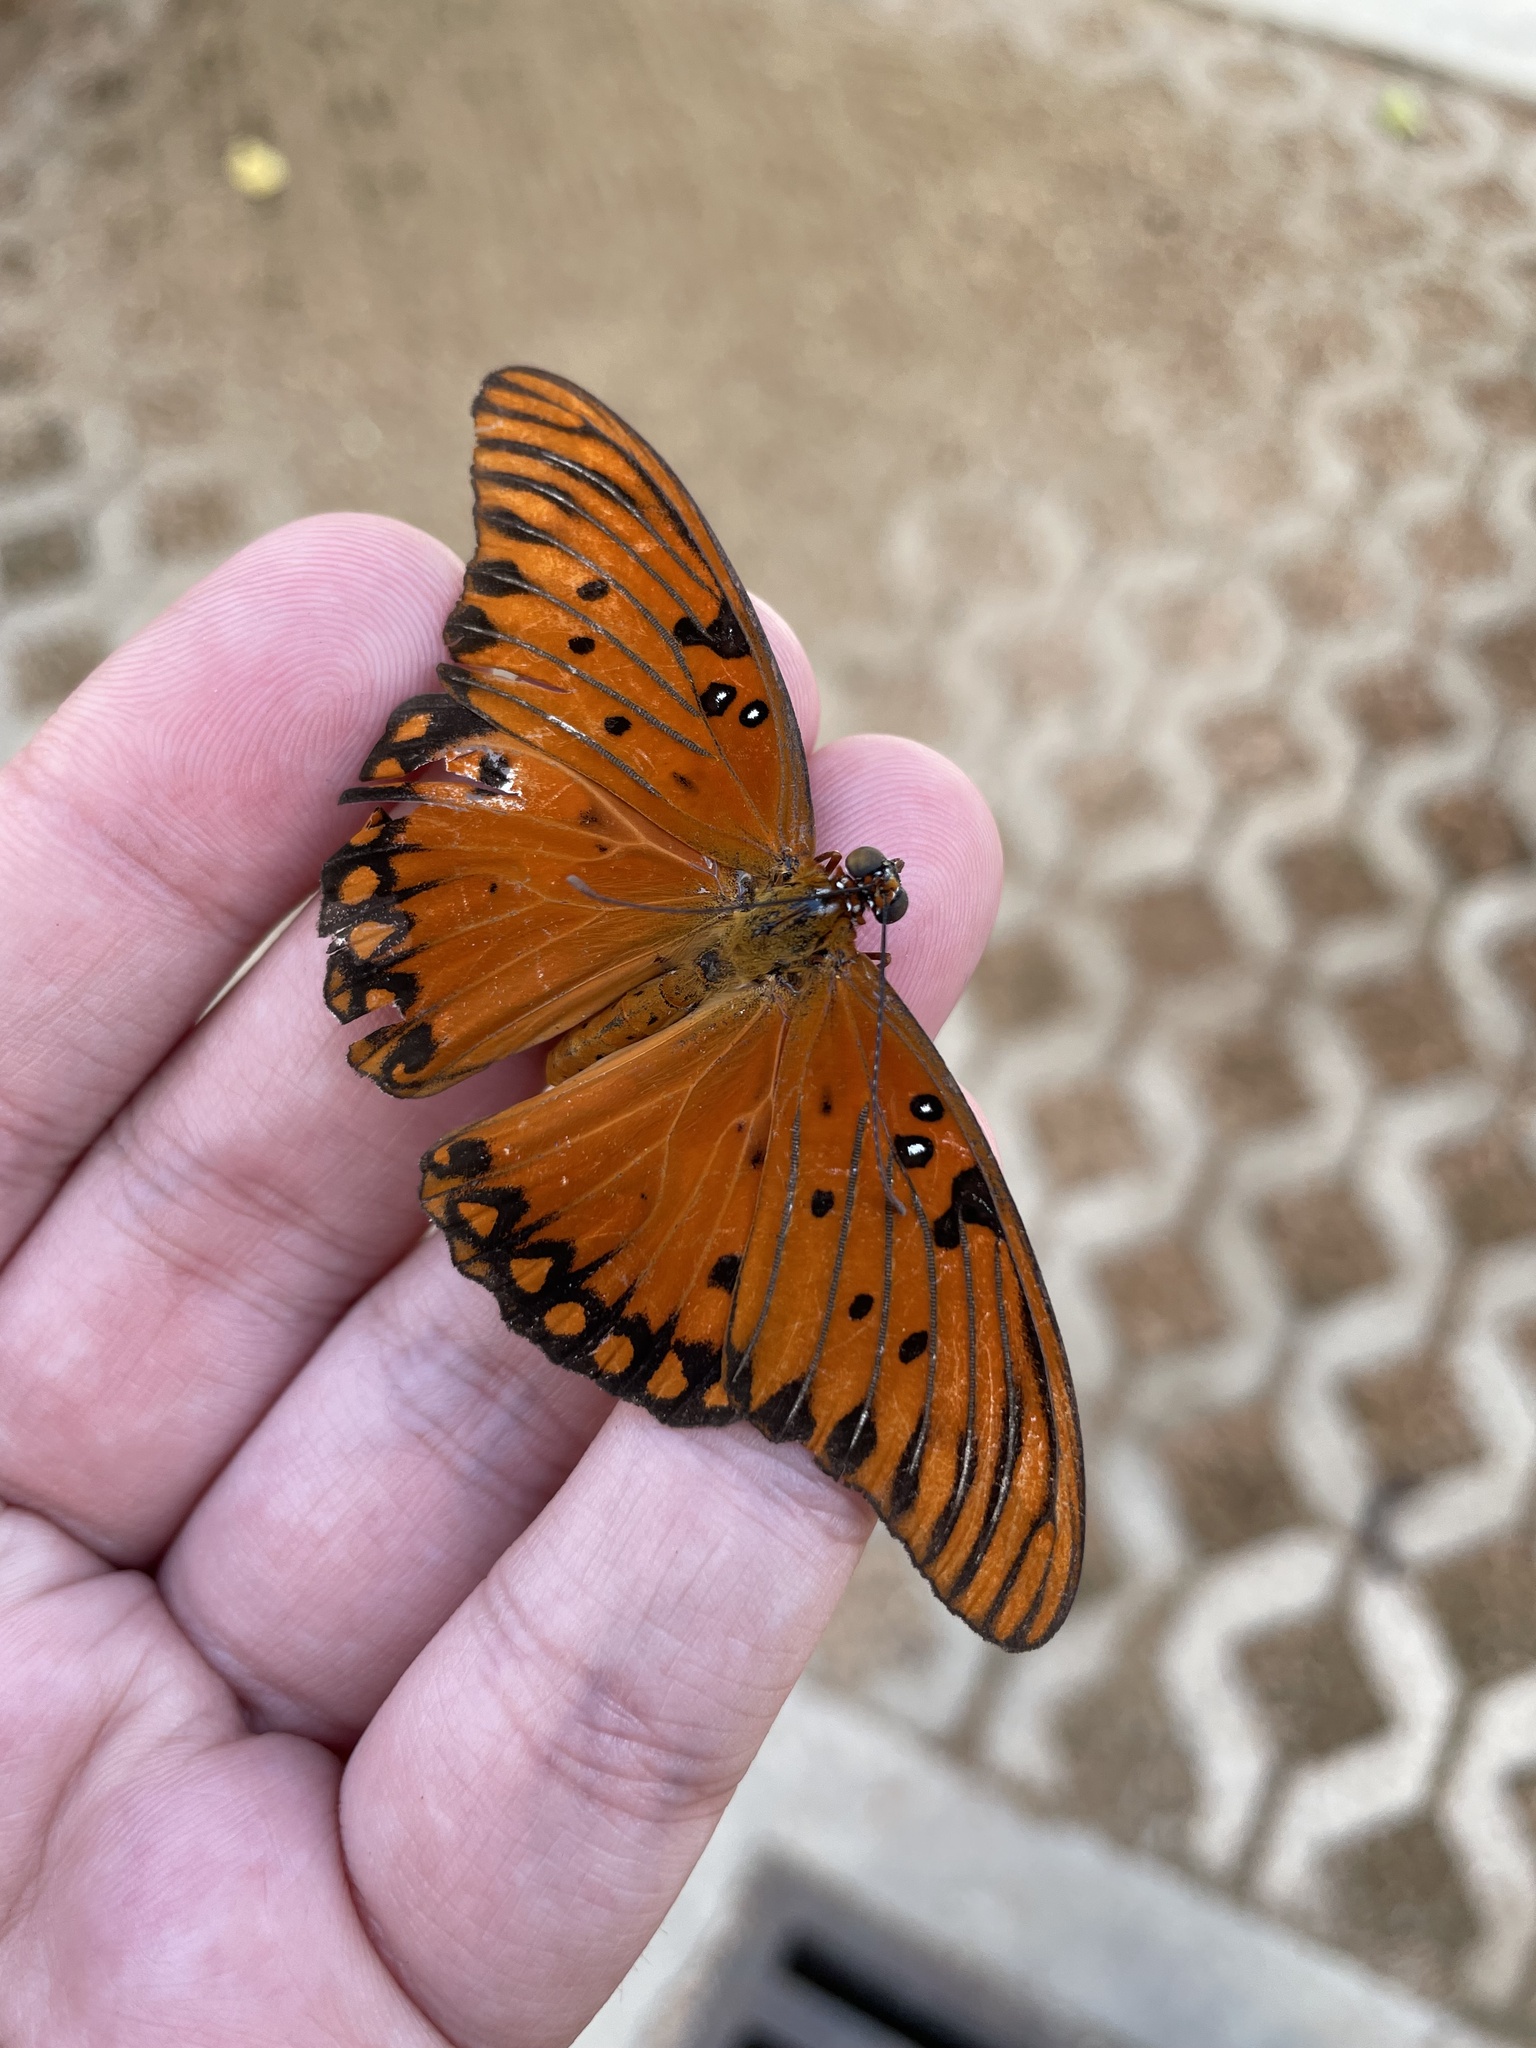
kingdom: Animalia
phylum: Arthropoda
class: Insecta
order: Lepidoptera
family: Nymphalidae
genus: Dione
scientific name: Dione vanillae
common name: Gulf fritillary
